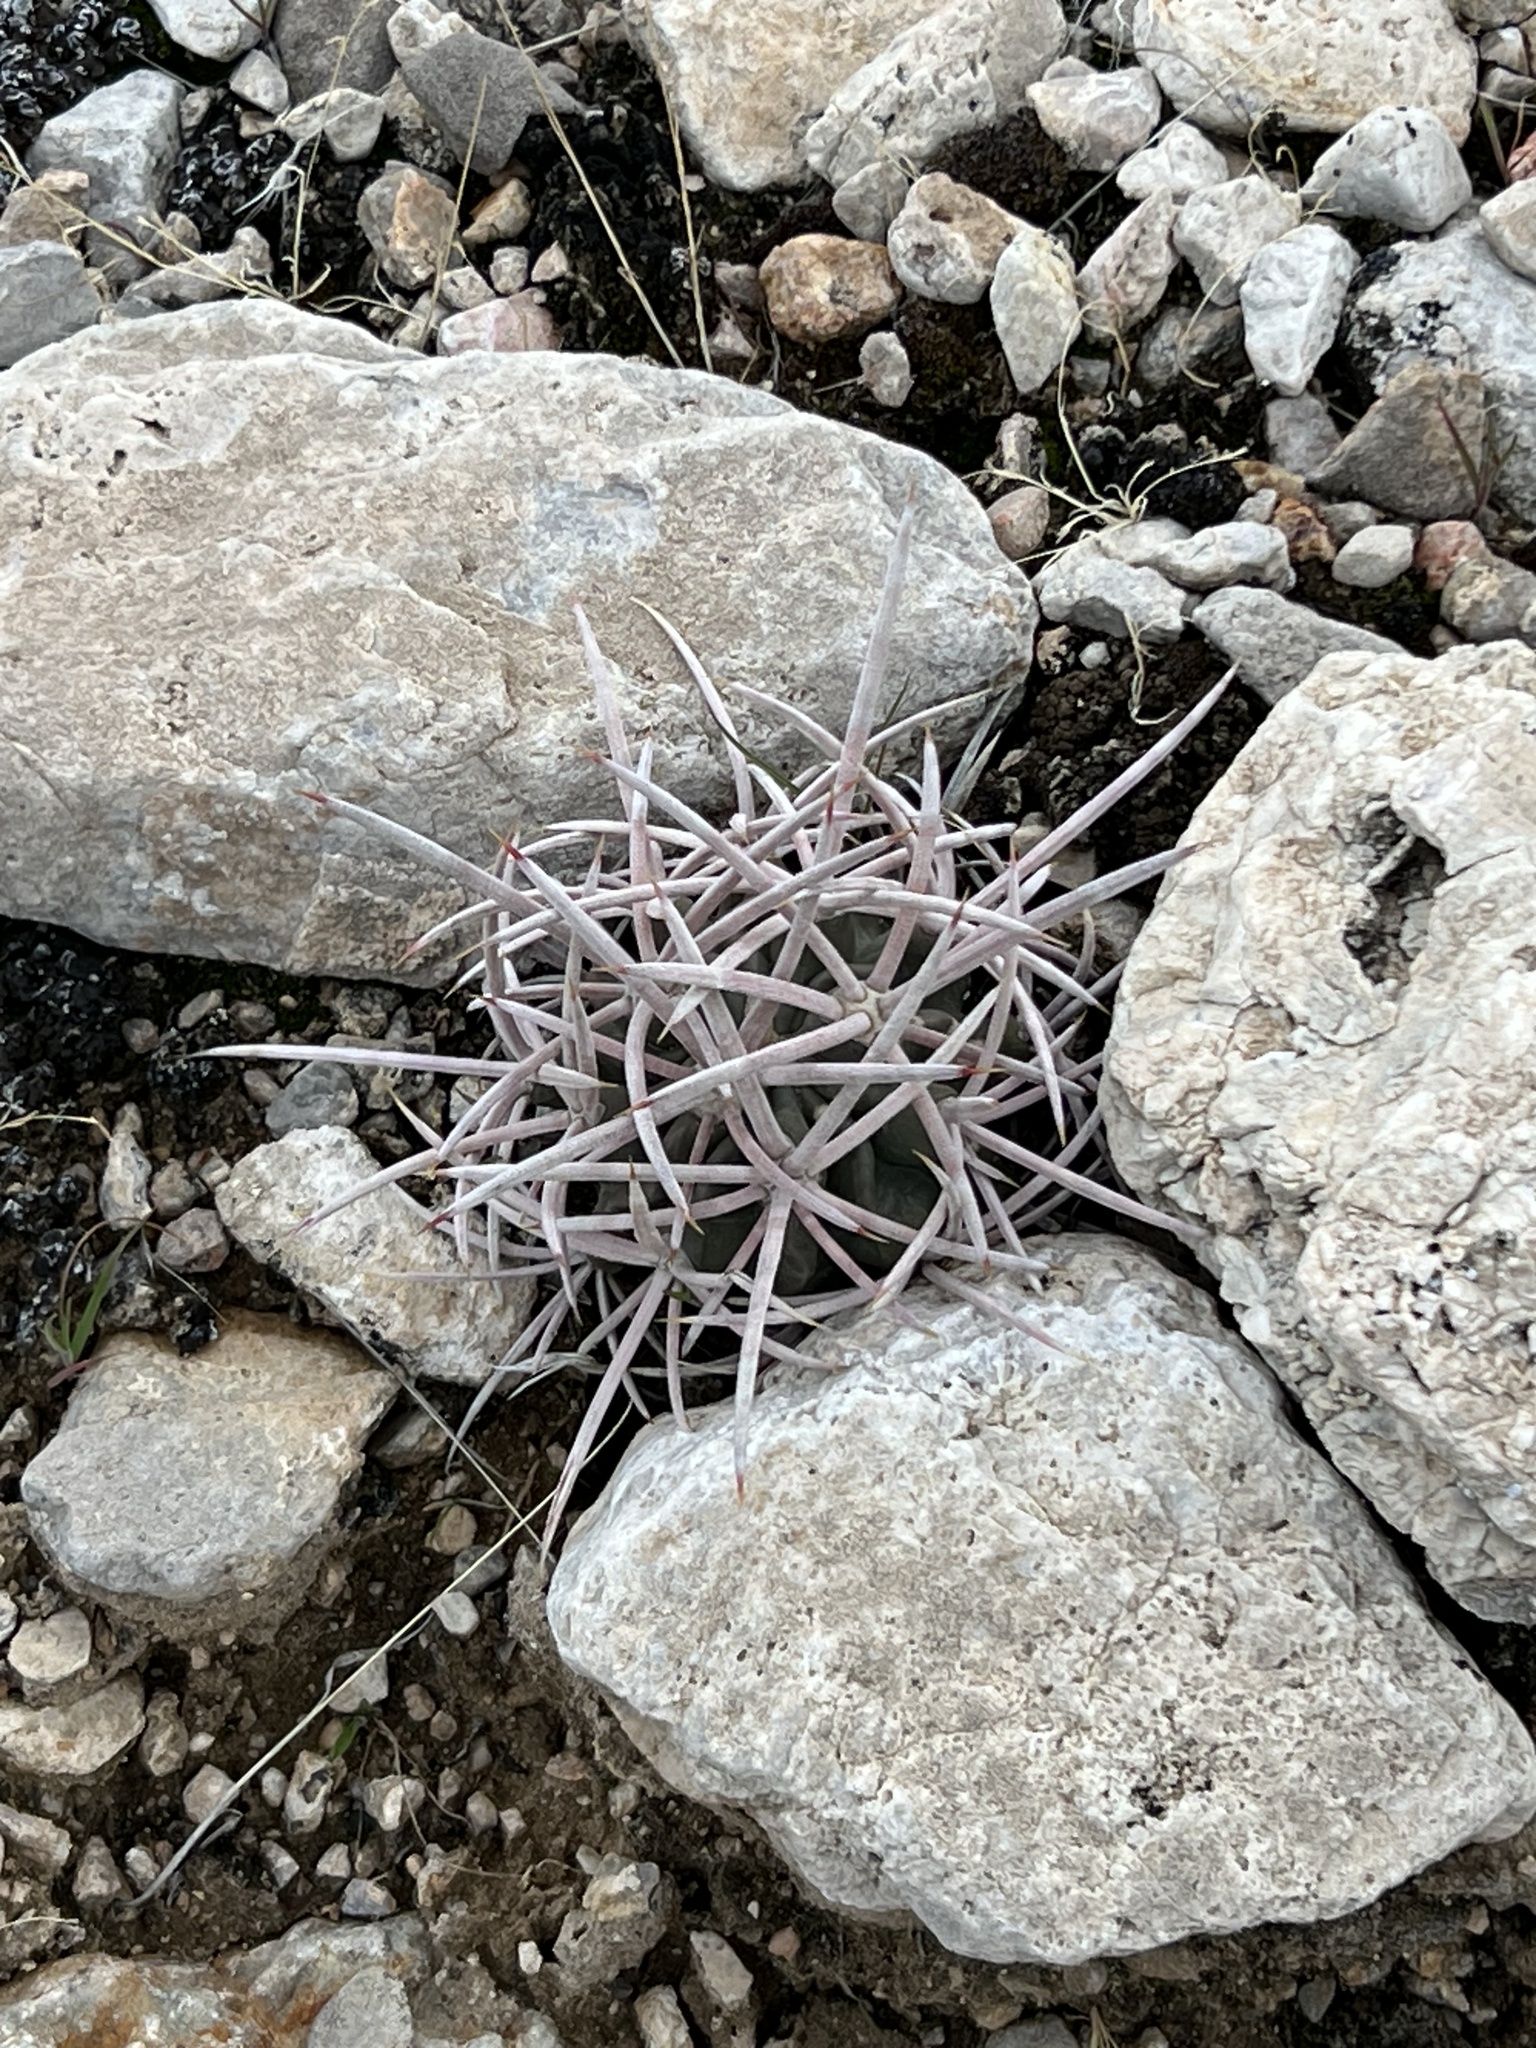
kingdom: Plantae
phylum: Tracheophyta
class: Magnoliopsida
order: Caryophyllales
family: Cactaceae
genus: Echinocactus
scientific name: Echinocactus polycephalus
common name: Cottontop cactus
